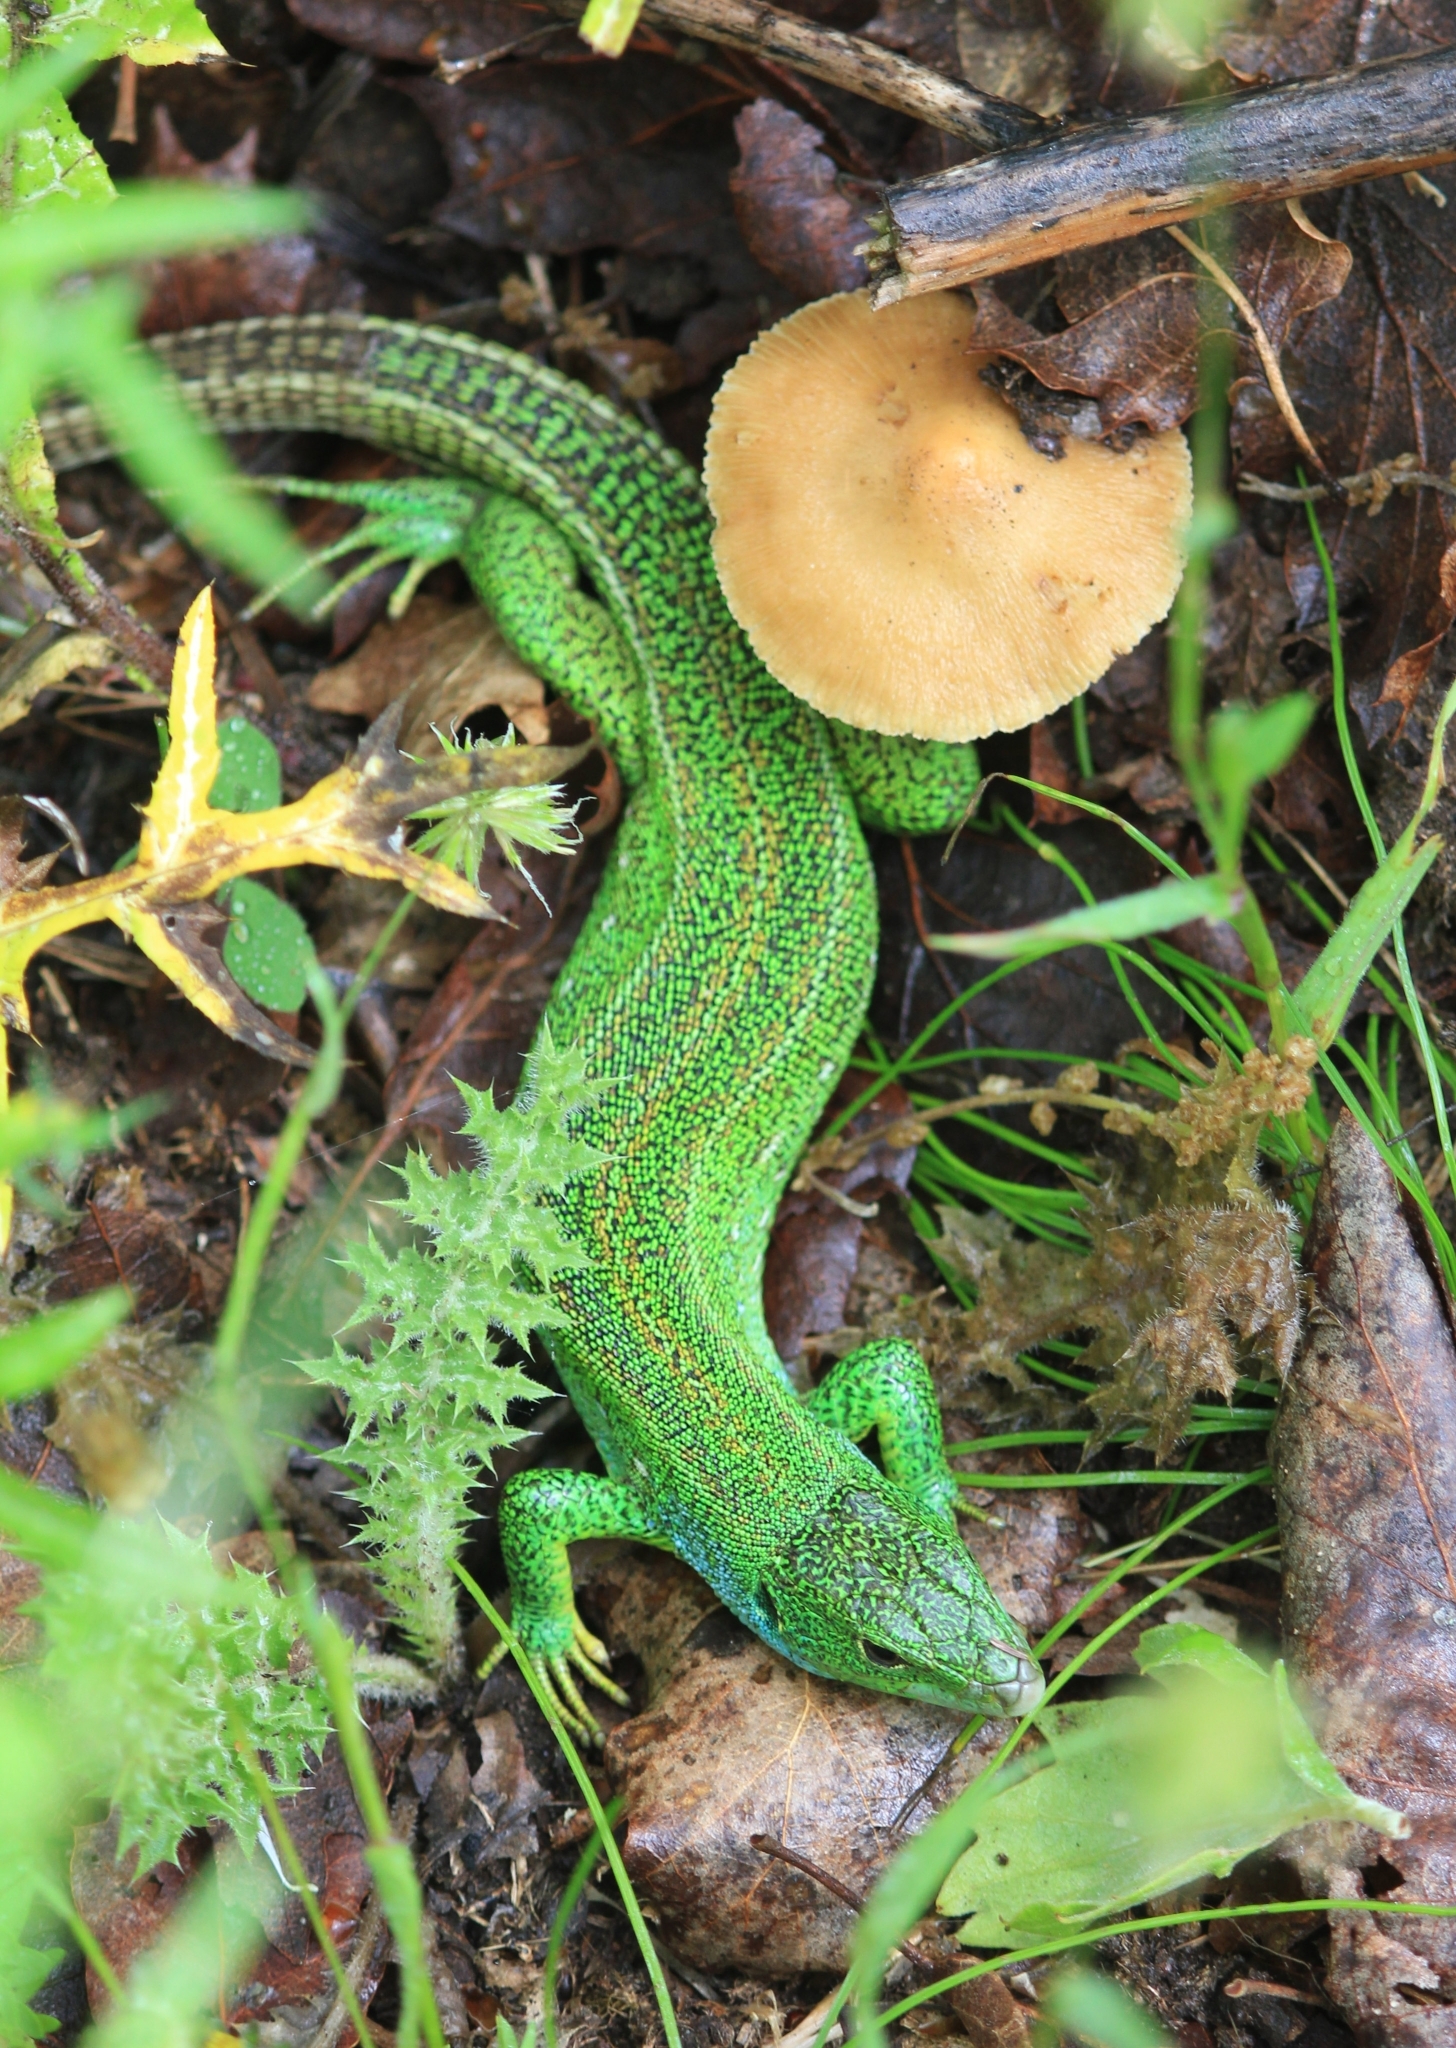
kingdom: Animalia
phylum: Chordata
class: Squamata
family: Lacertidae
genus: Lacerta
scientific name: Lacerta trilineata
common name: Balkan green lizard
